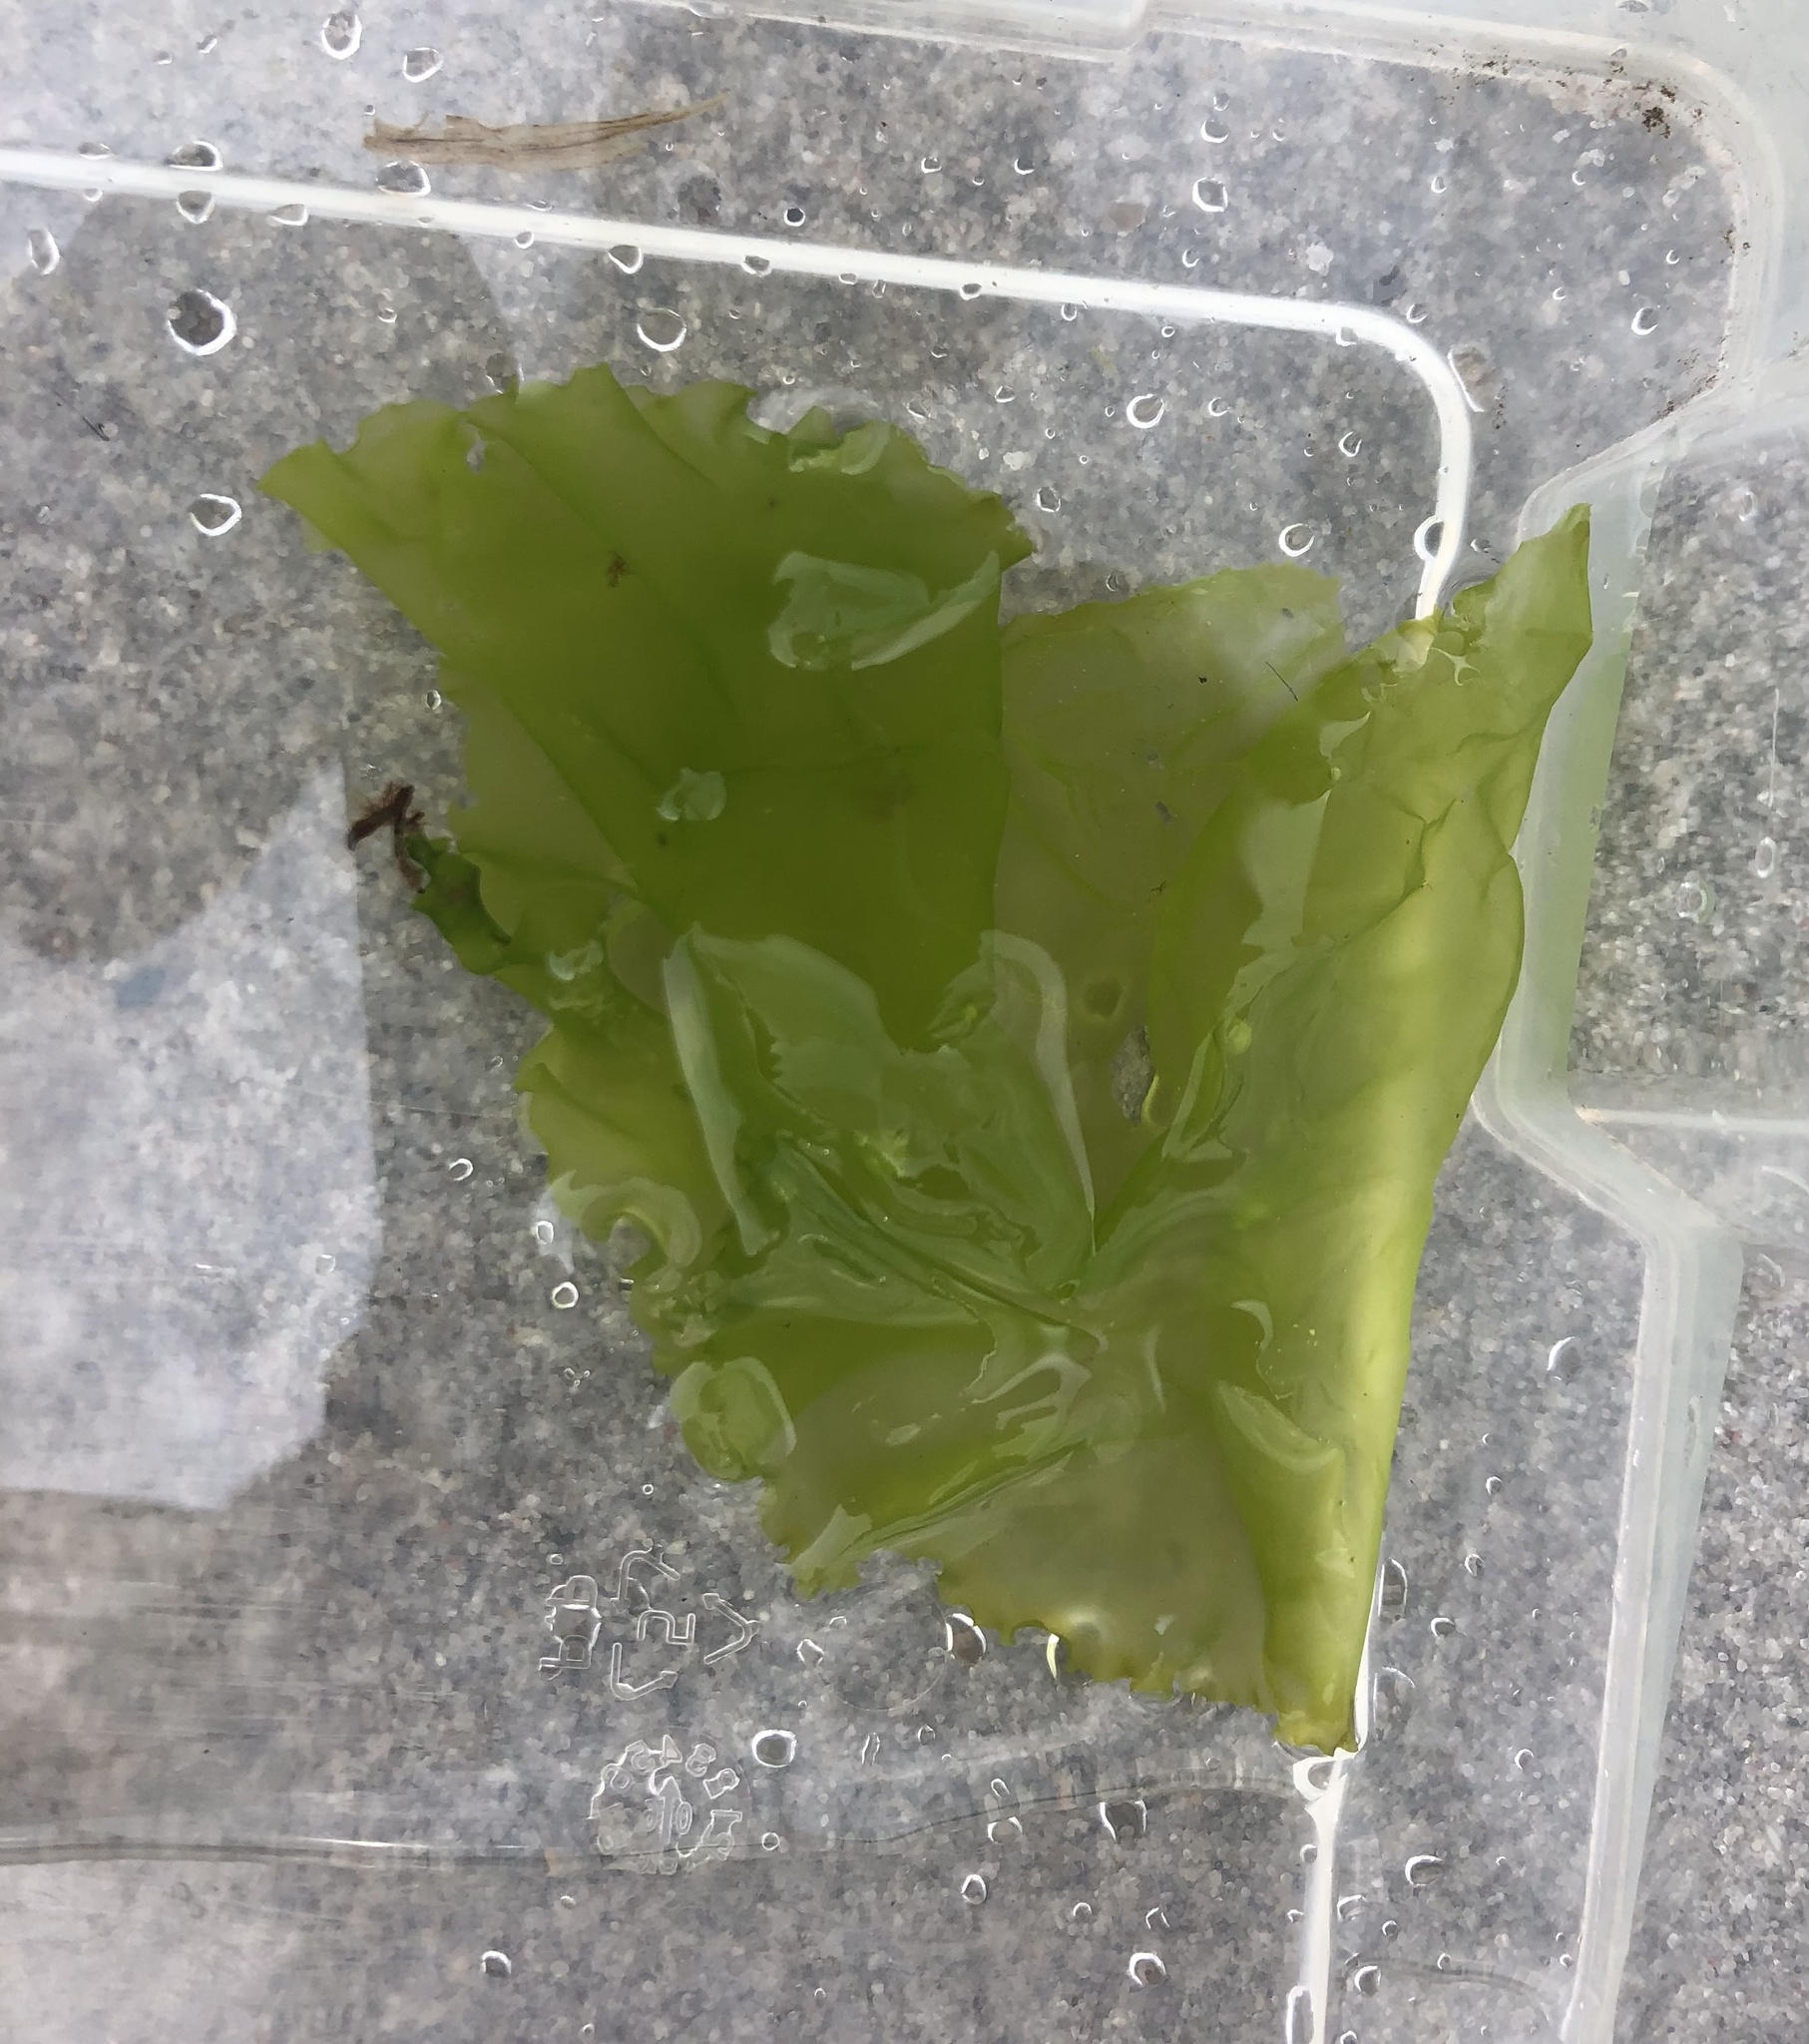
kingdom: Plantae
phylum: Chlorophyta
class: Ulvophyceae
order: Ulvales
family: Ulvaceae
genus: Ulva
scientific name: Ulva lactuca
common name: Sea lettuce
